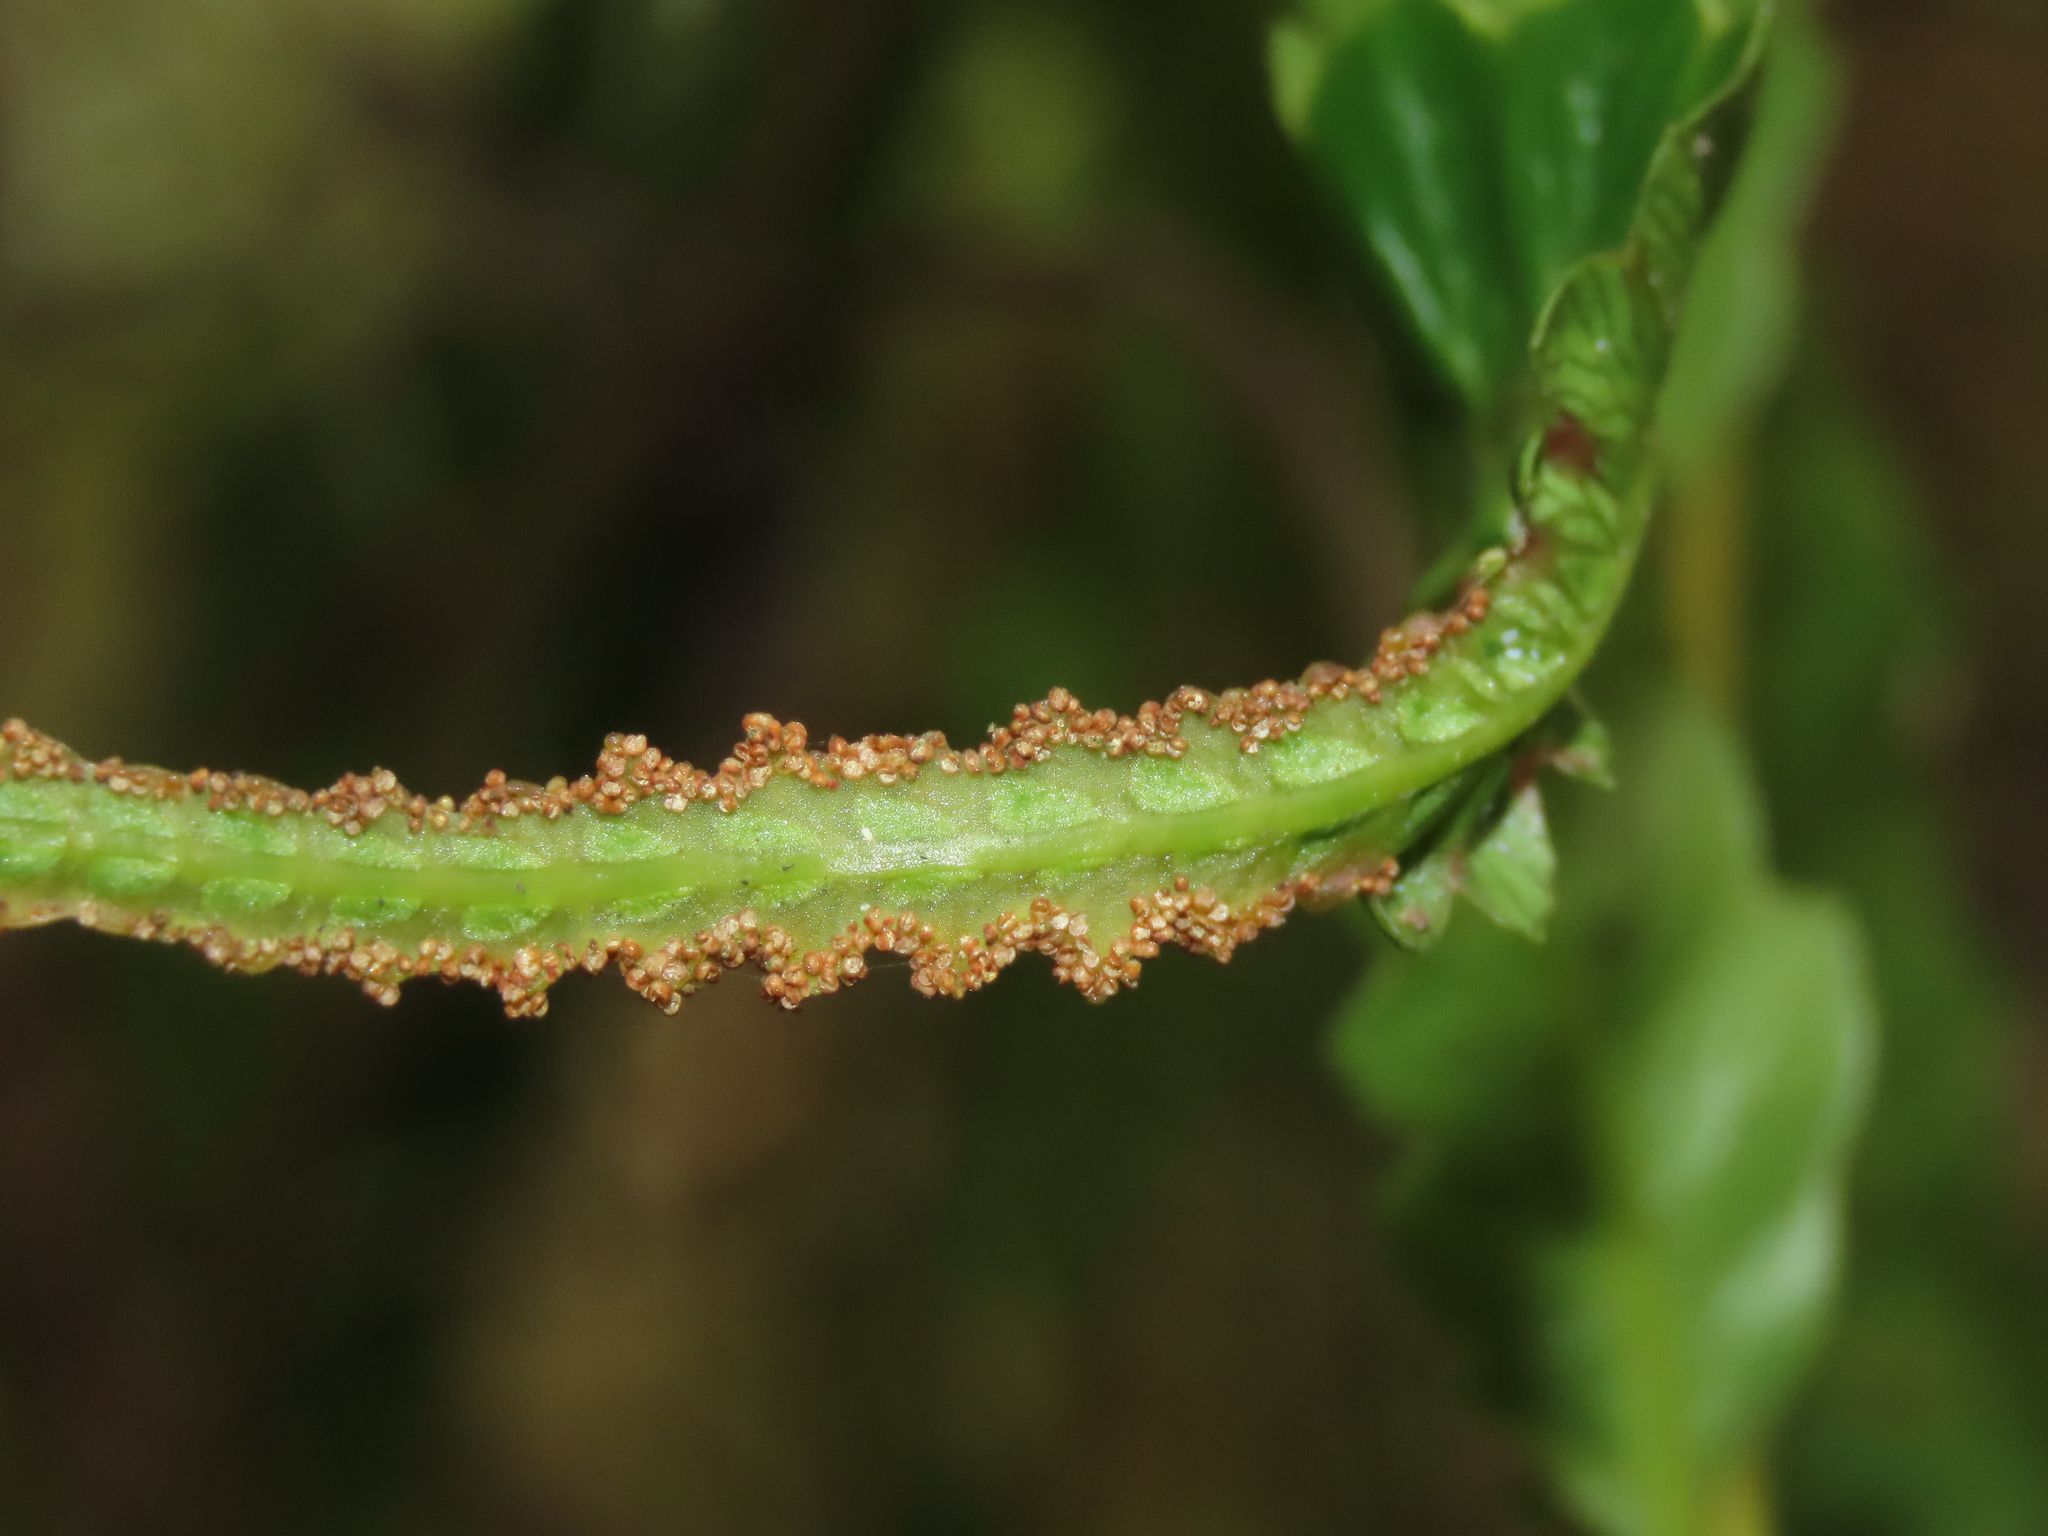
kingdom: Plantae
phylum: Tracheophyta
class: Polypodiopsida
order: Osmundales
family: Osmundaceae
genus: Plenasium
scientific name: Plenasium banksiifolium
